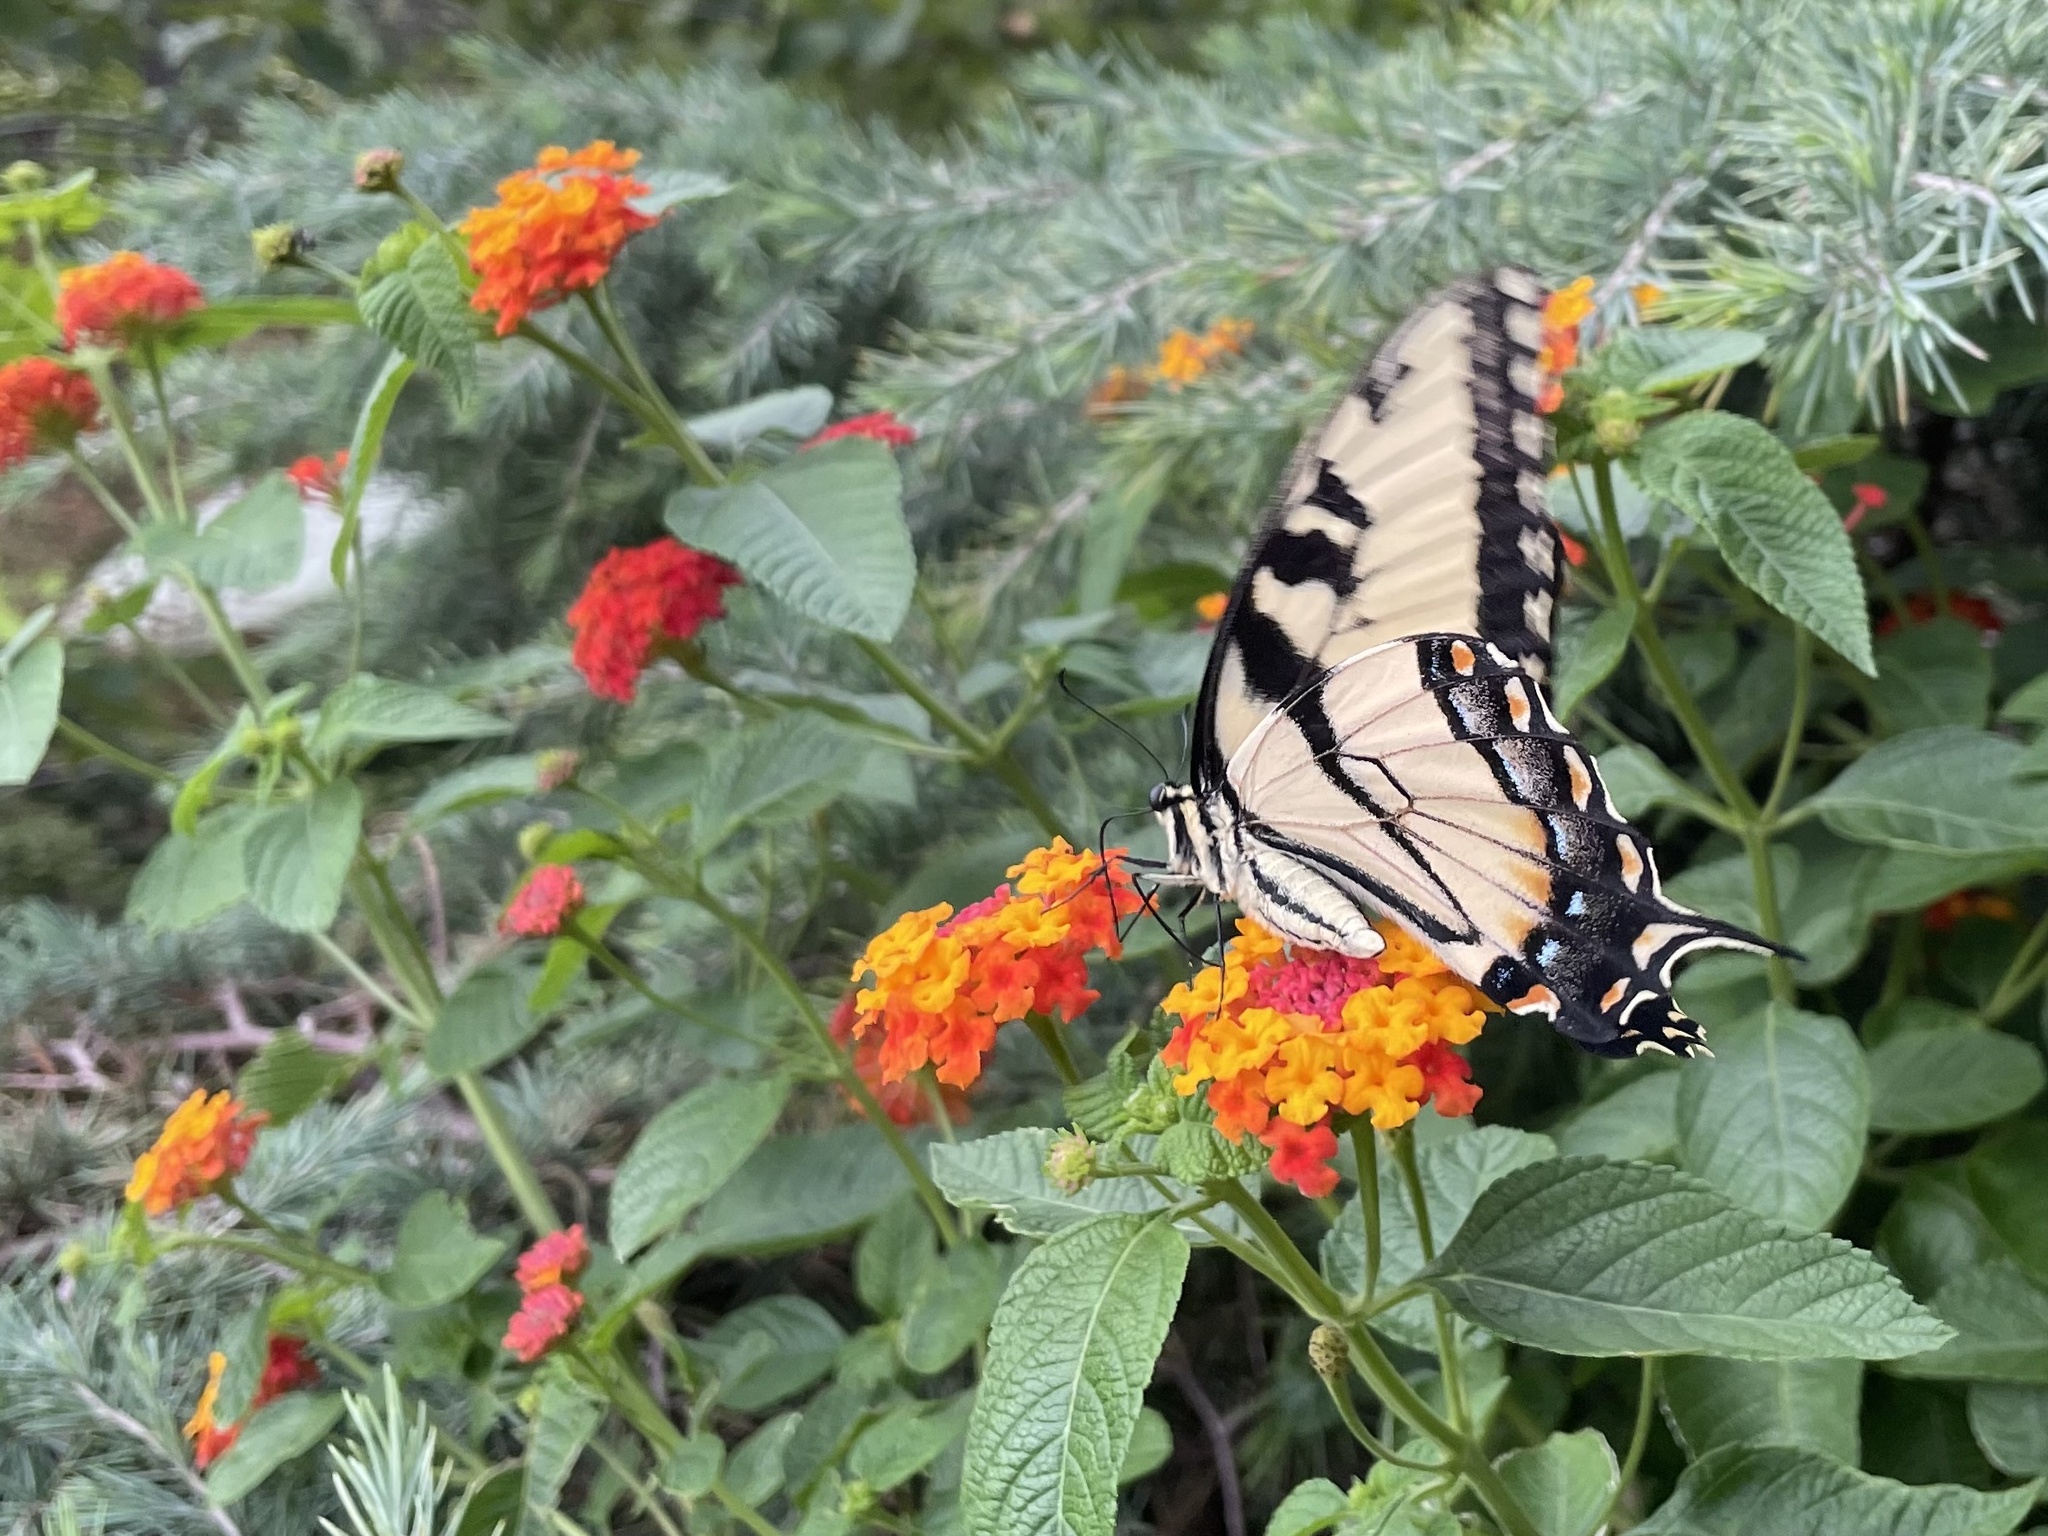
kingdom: Animalia
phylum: Arthropoda
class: Insecta
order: Lepidoptera
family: Papilionidae
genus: Papilio
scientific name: Papilio glaucus
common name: Tiger swallowtail
